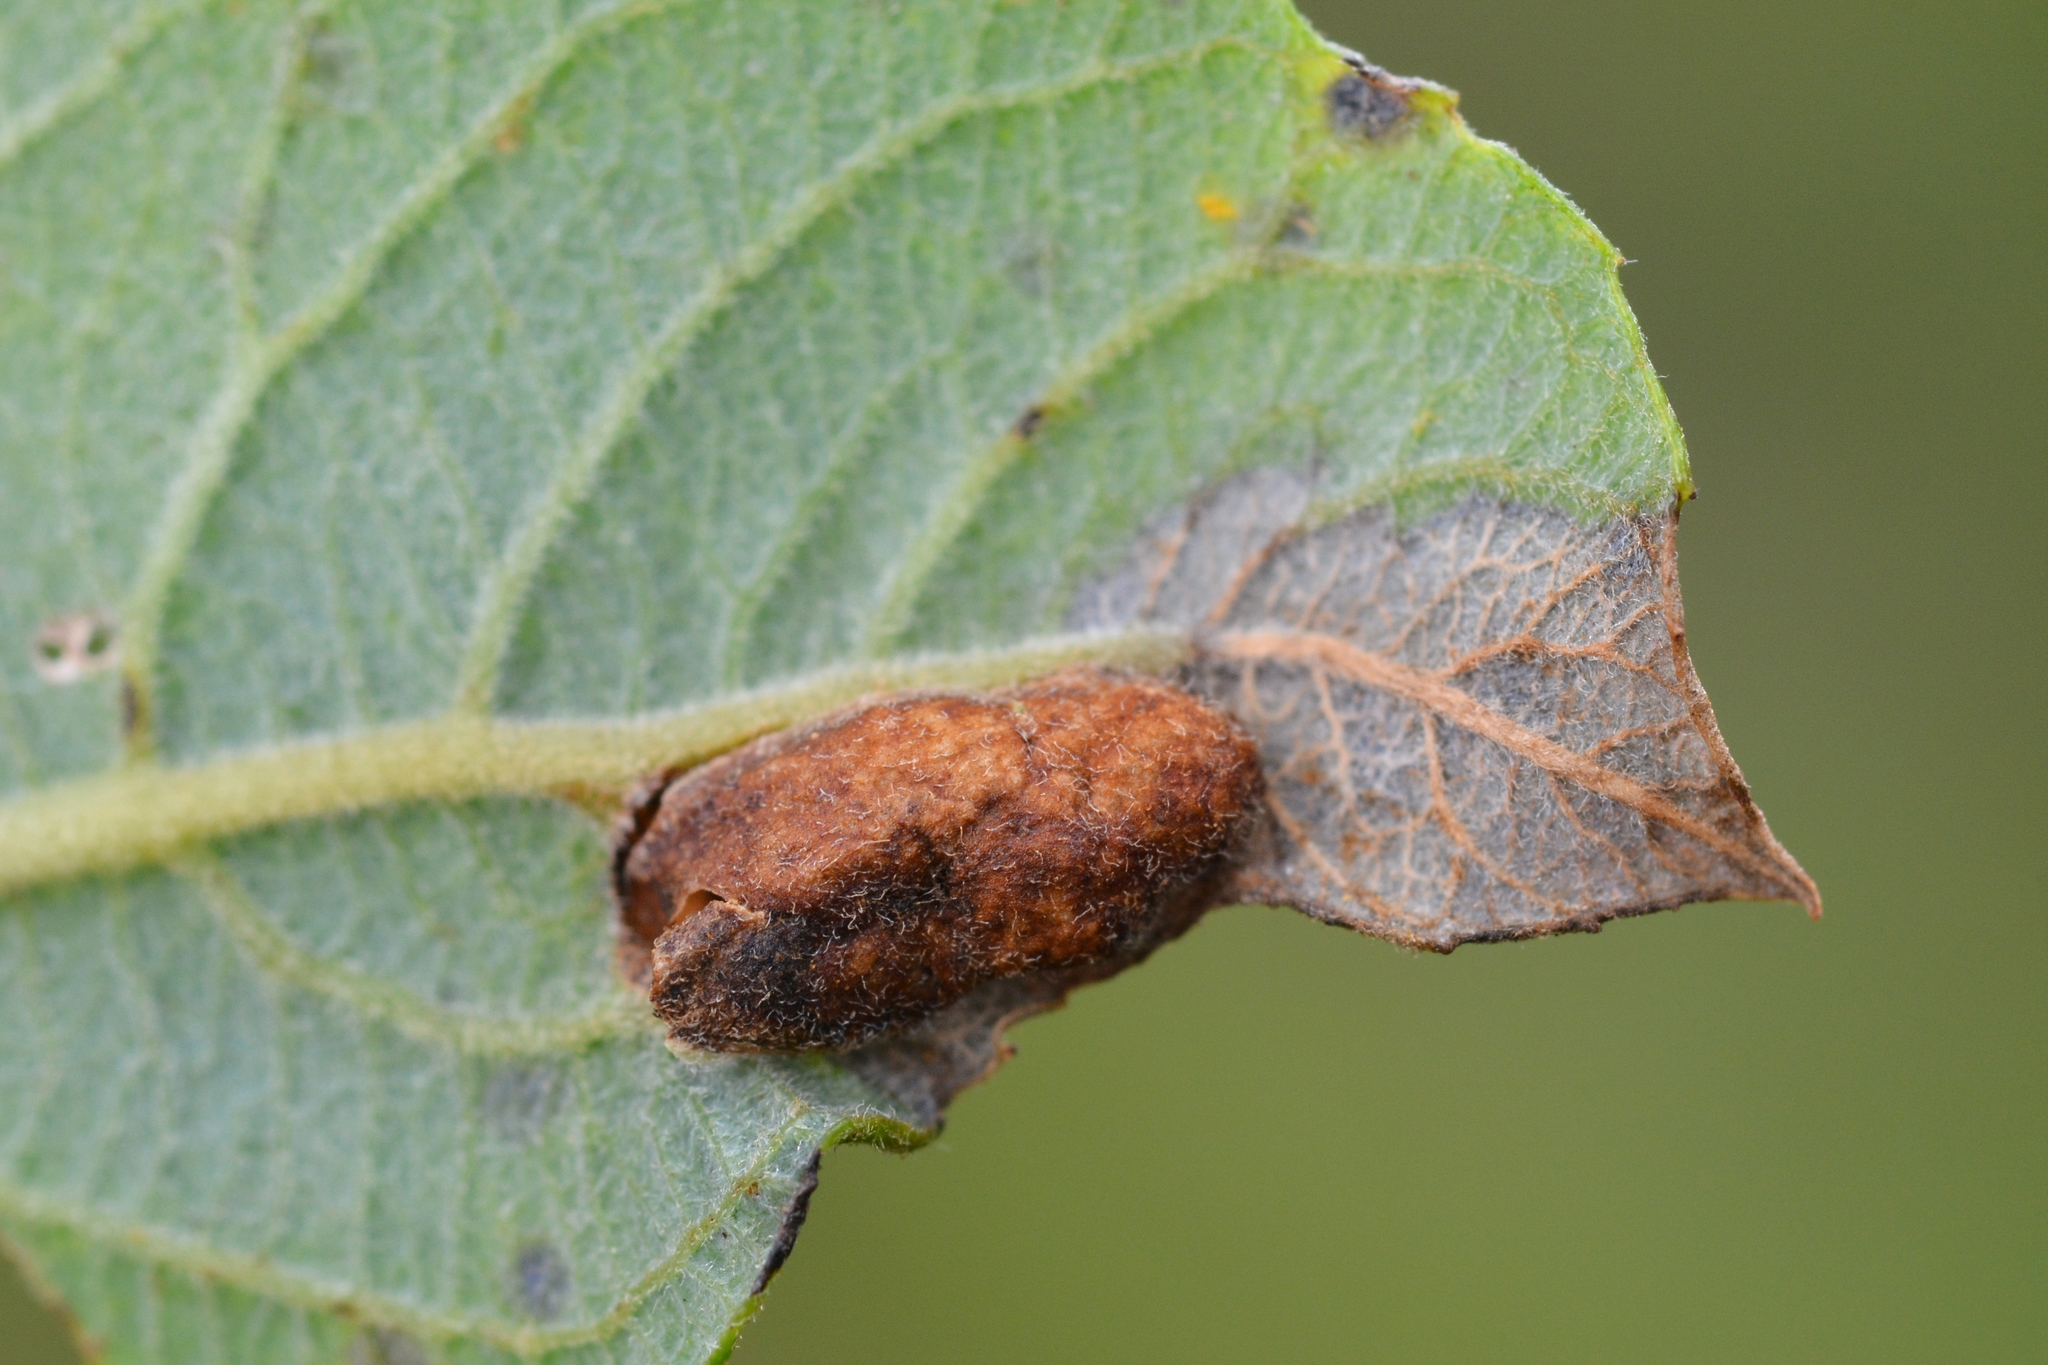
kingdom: Animalia
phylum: Arthropoda
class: Insecta
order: Hymenoptera
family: Tenthredinidae
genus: Pontania
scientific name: Pontania bridgmanii
